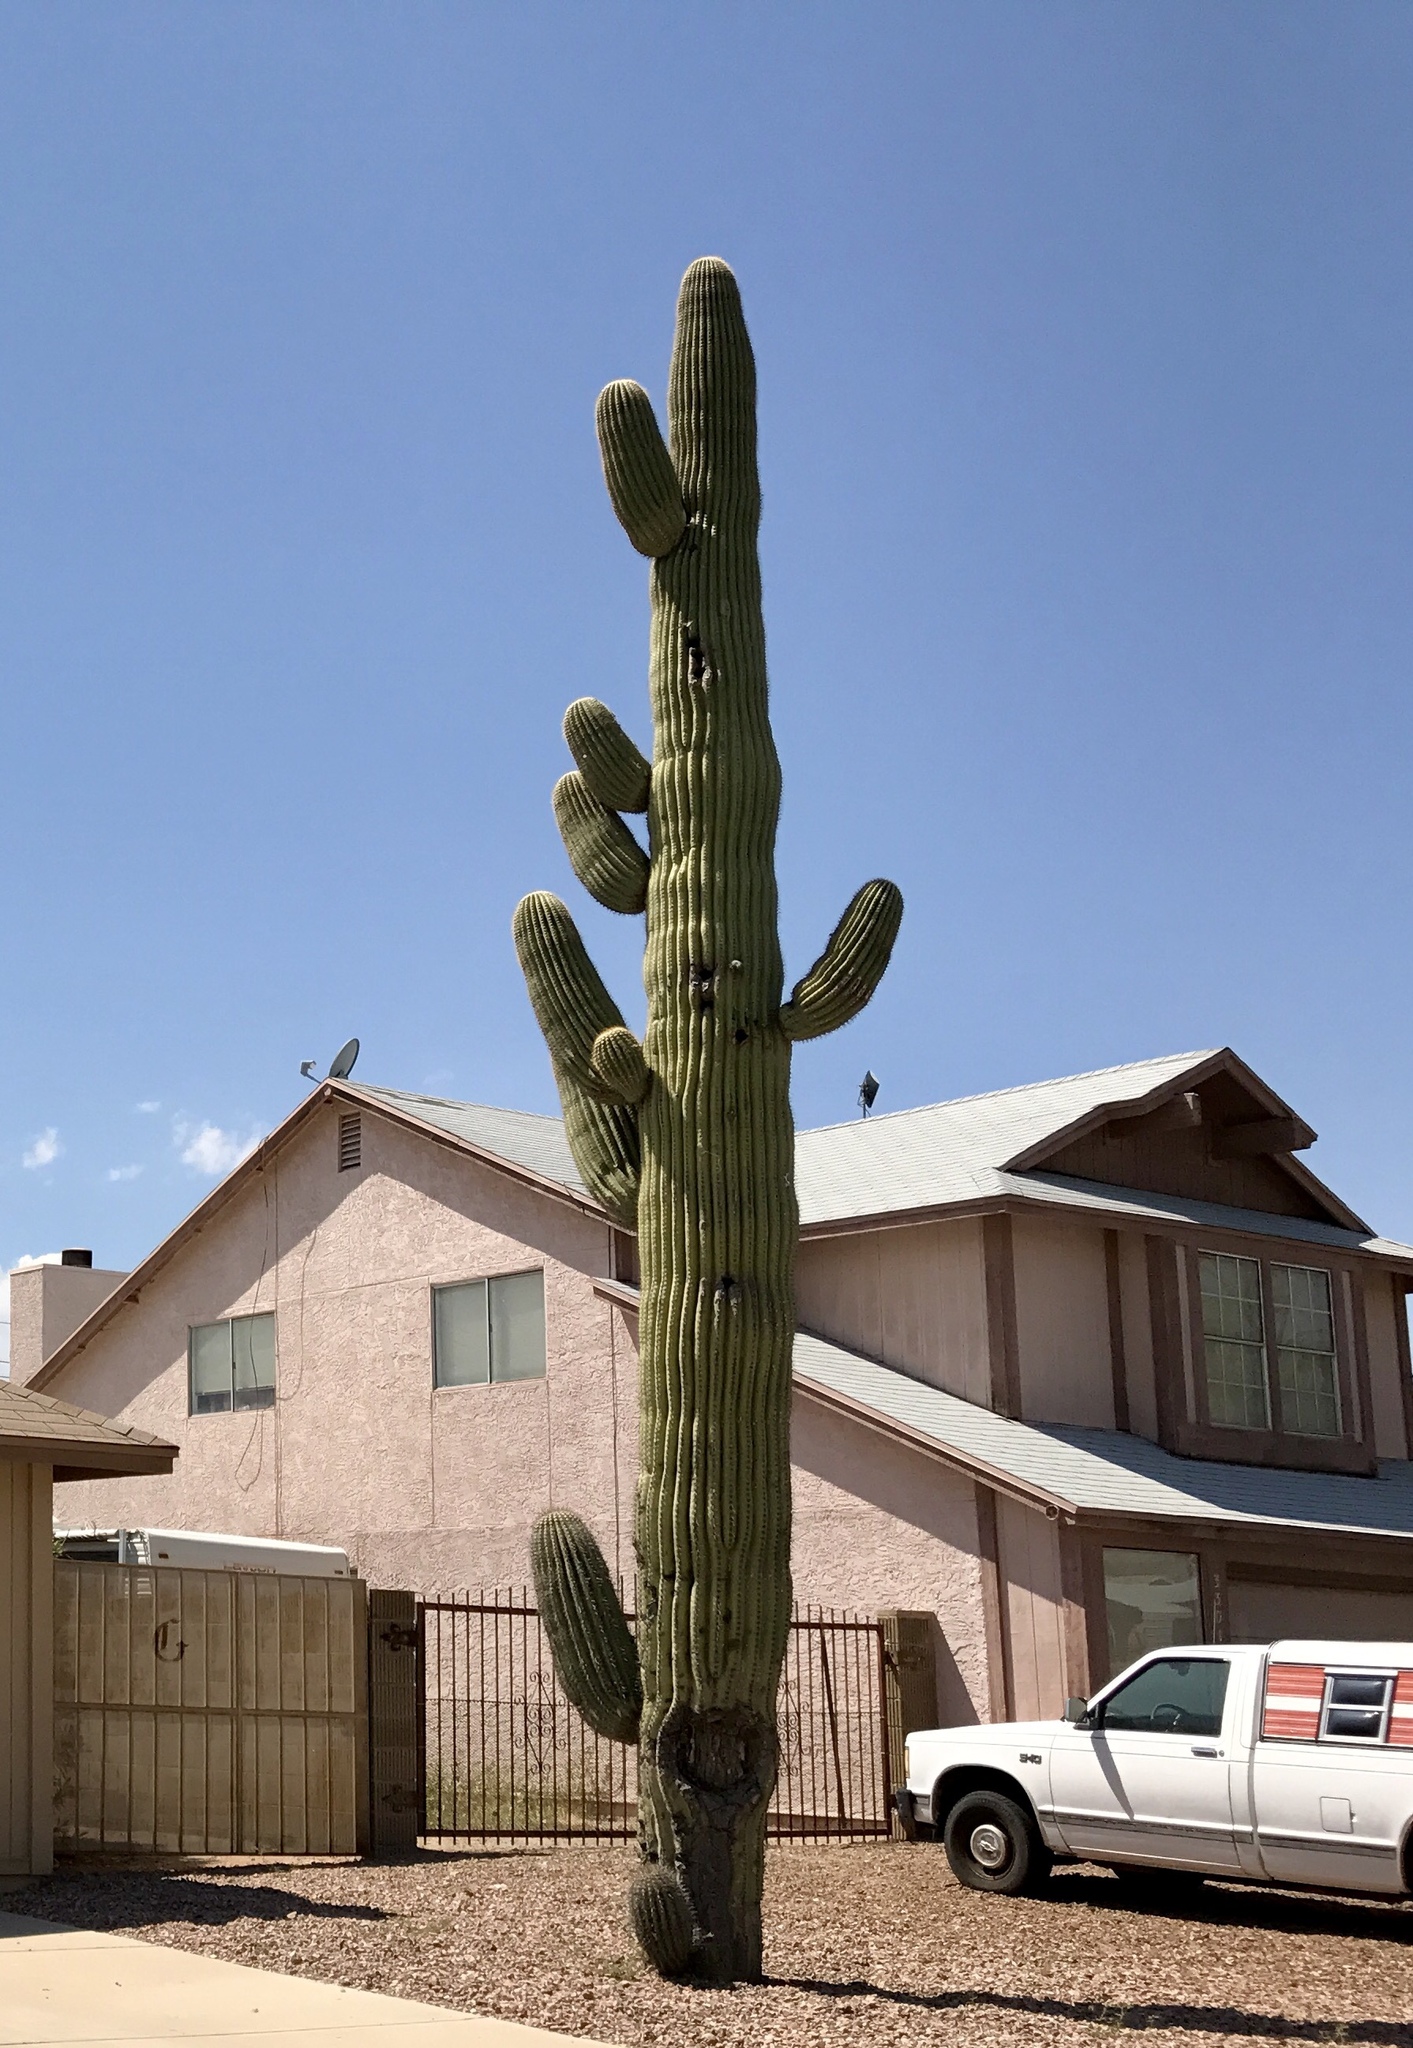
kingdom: Plantae
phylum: Tracheophyta
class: Magnoliopsida
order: Caryophyllales
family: Cactaceae
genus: Carnegiea
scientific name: Carnegiea gigantea
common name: Saguaro
